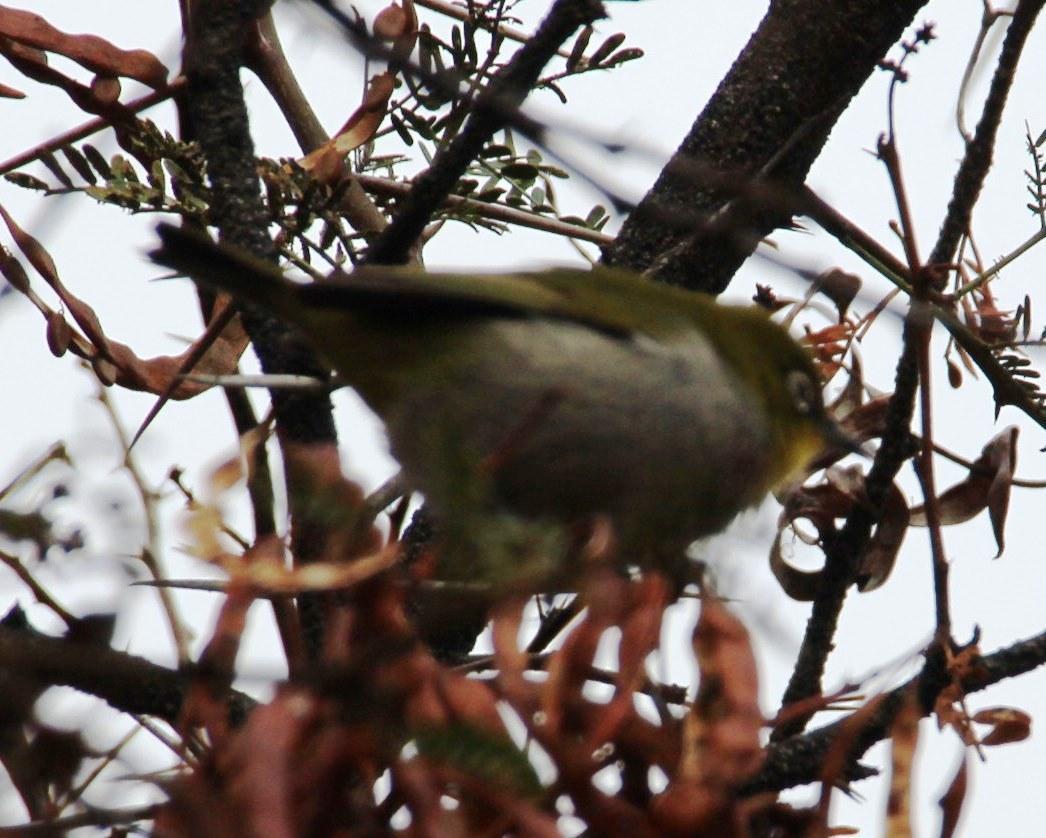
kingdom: Animalia
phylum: Chordata
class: Aves
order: Passeriformes
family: Zosteropidae
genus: Zosterops
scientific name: Zosterops virens
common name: Cape white-eye
